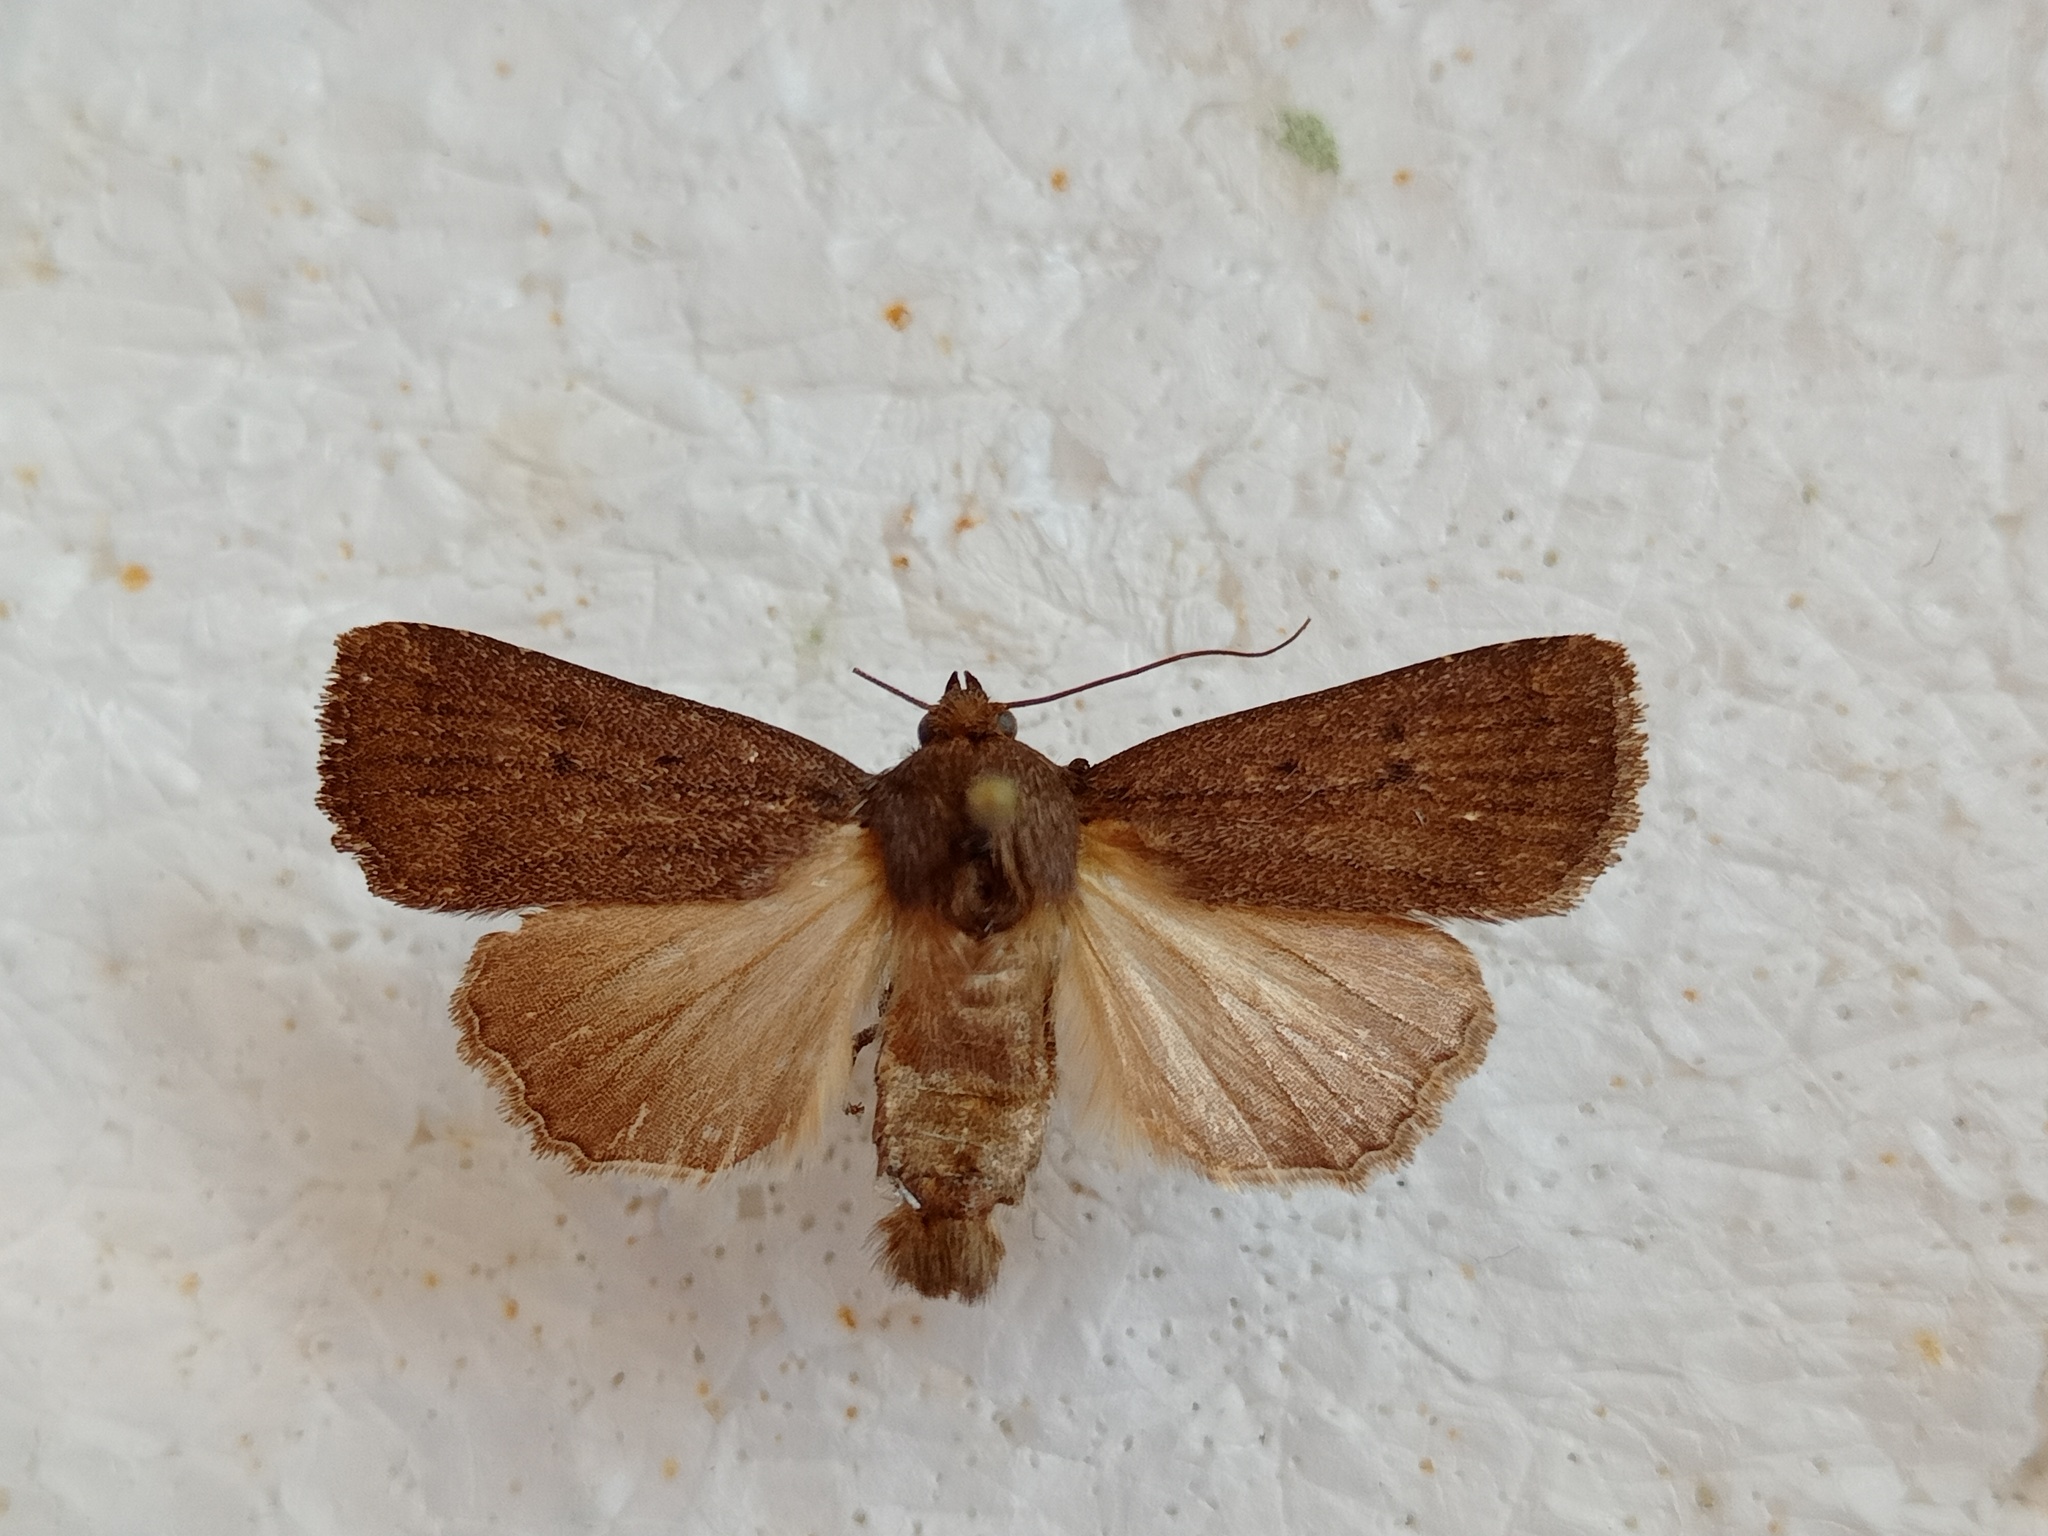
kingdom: Animalia
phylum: Arthropoda
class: Insecta
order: Lepidoptera
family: Noctuidae
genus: Amphipyra
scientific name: Amphipyra tragopoginis
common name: Mouse moth
